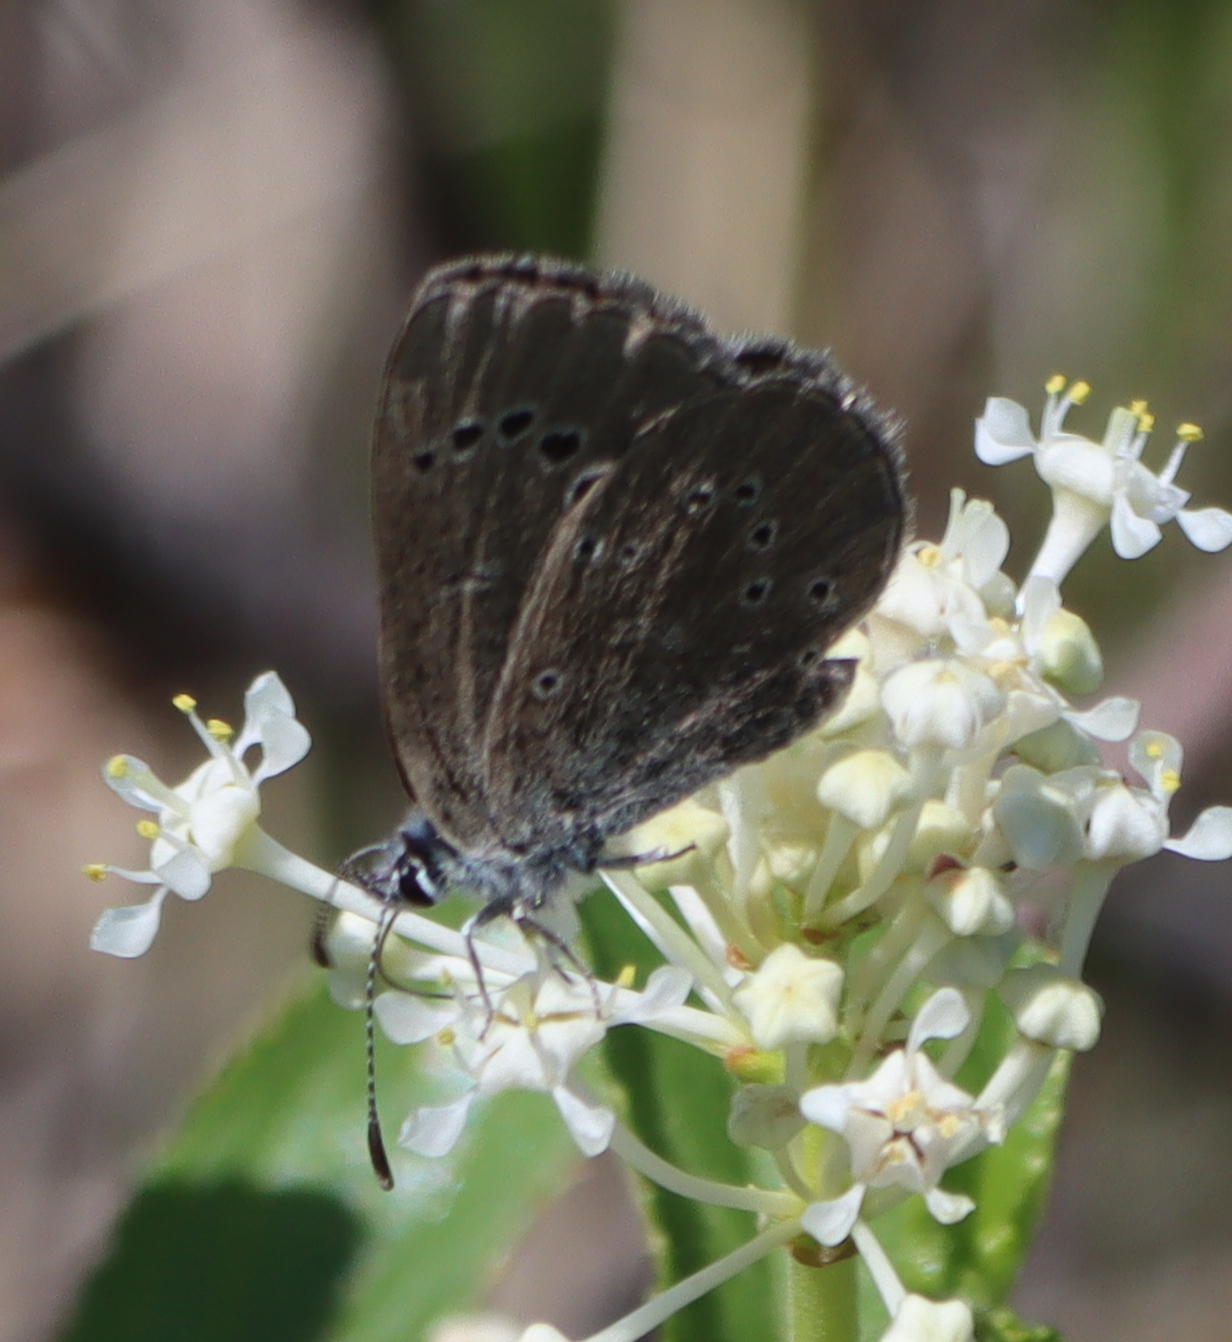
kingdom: Animalia
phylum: Arthropoda
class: Insecta
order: Lepidoptera
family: Lycaenidae
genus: Glaucopsyche
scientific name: Glaucopsyche lygdamus
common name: Silvery blue
